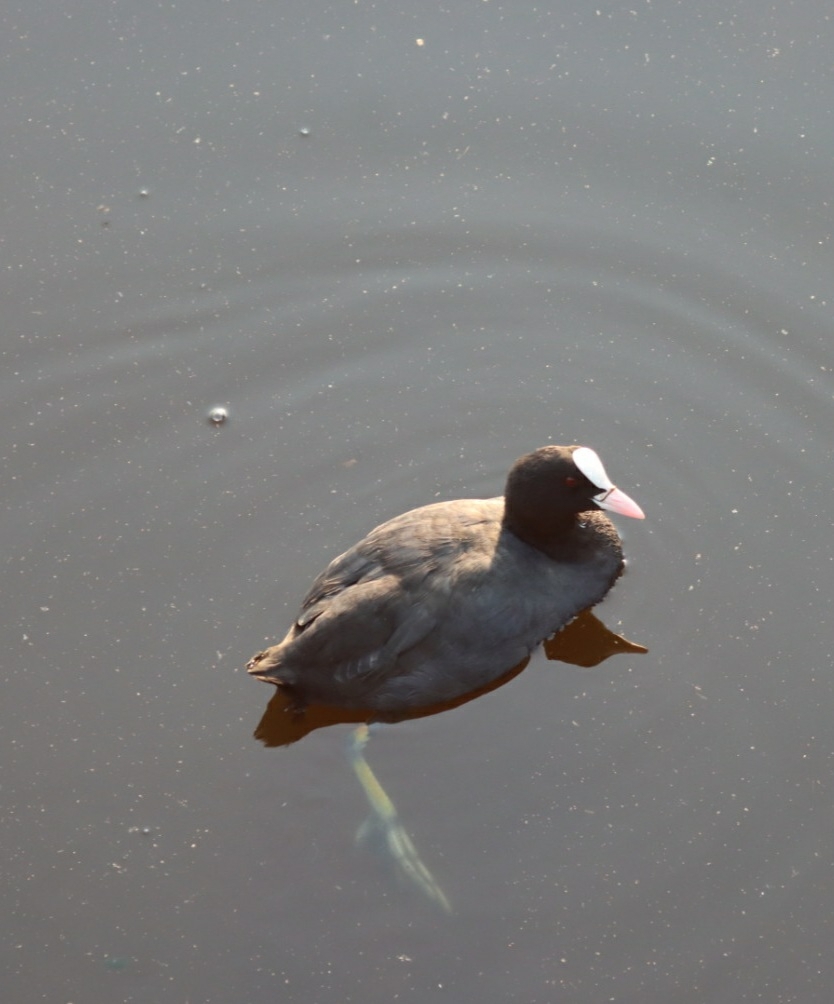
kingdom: Animalia
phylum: Chordata
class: Aves
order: Gruiformes
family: Rallidae
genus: Fulica
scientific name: Fulica atra
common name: Eurasian coot
